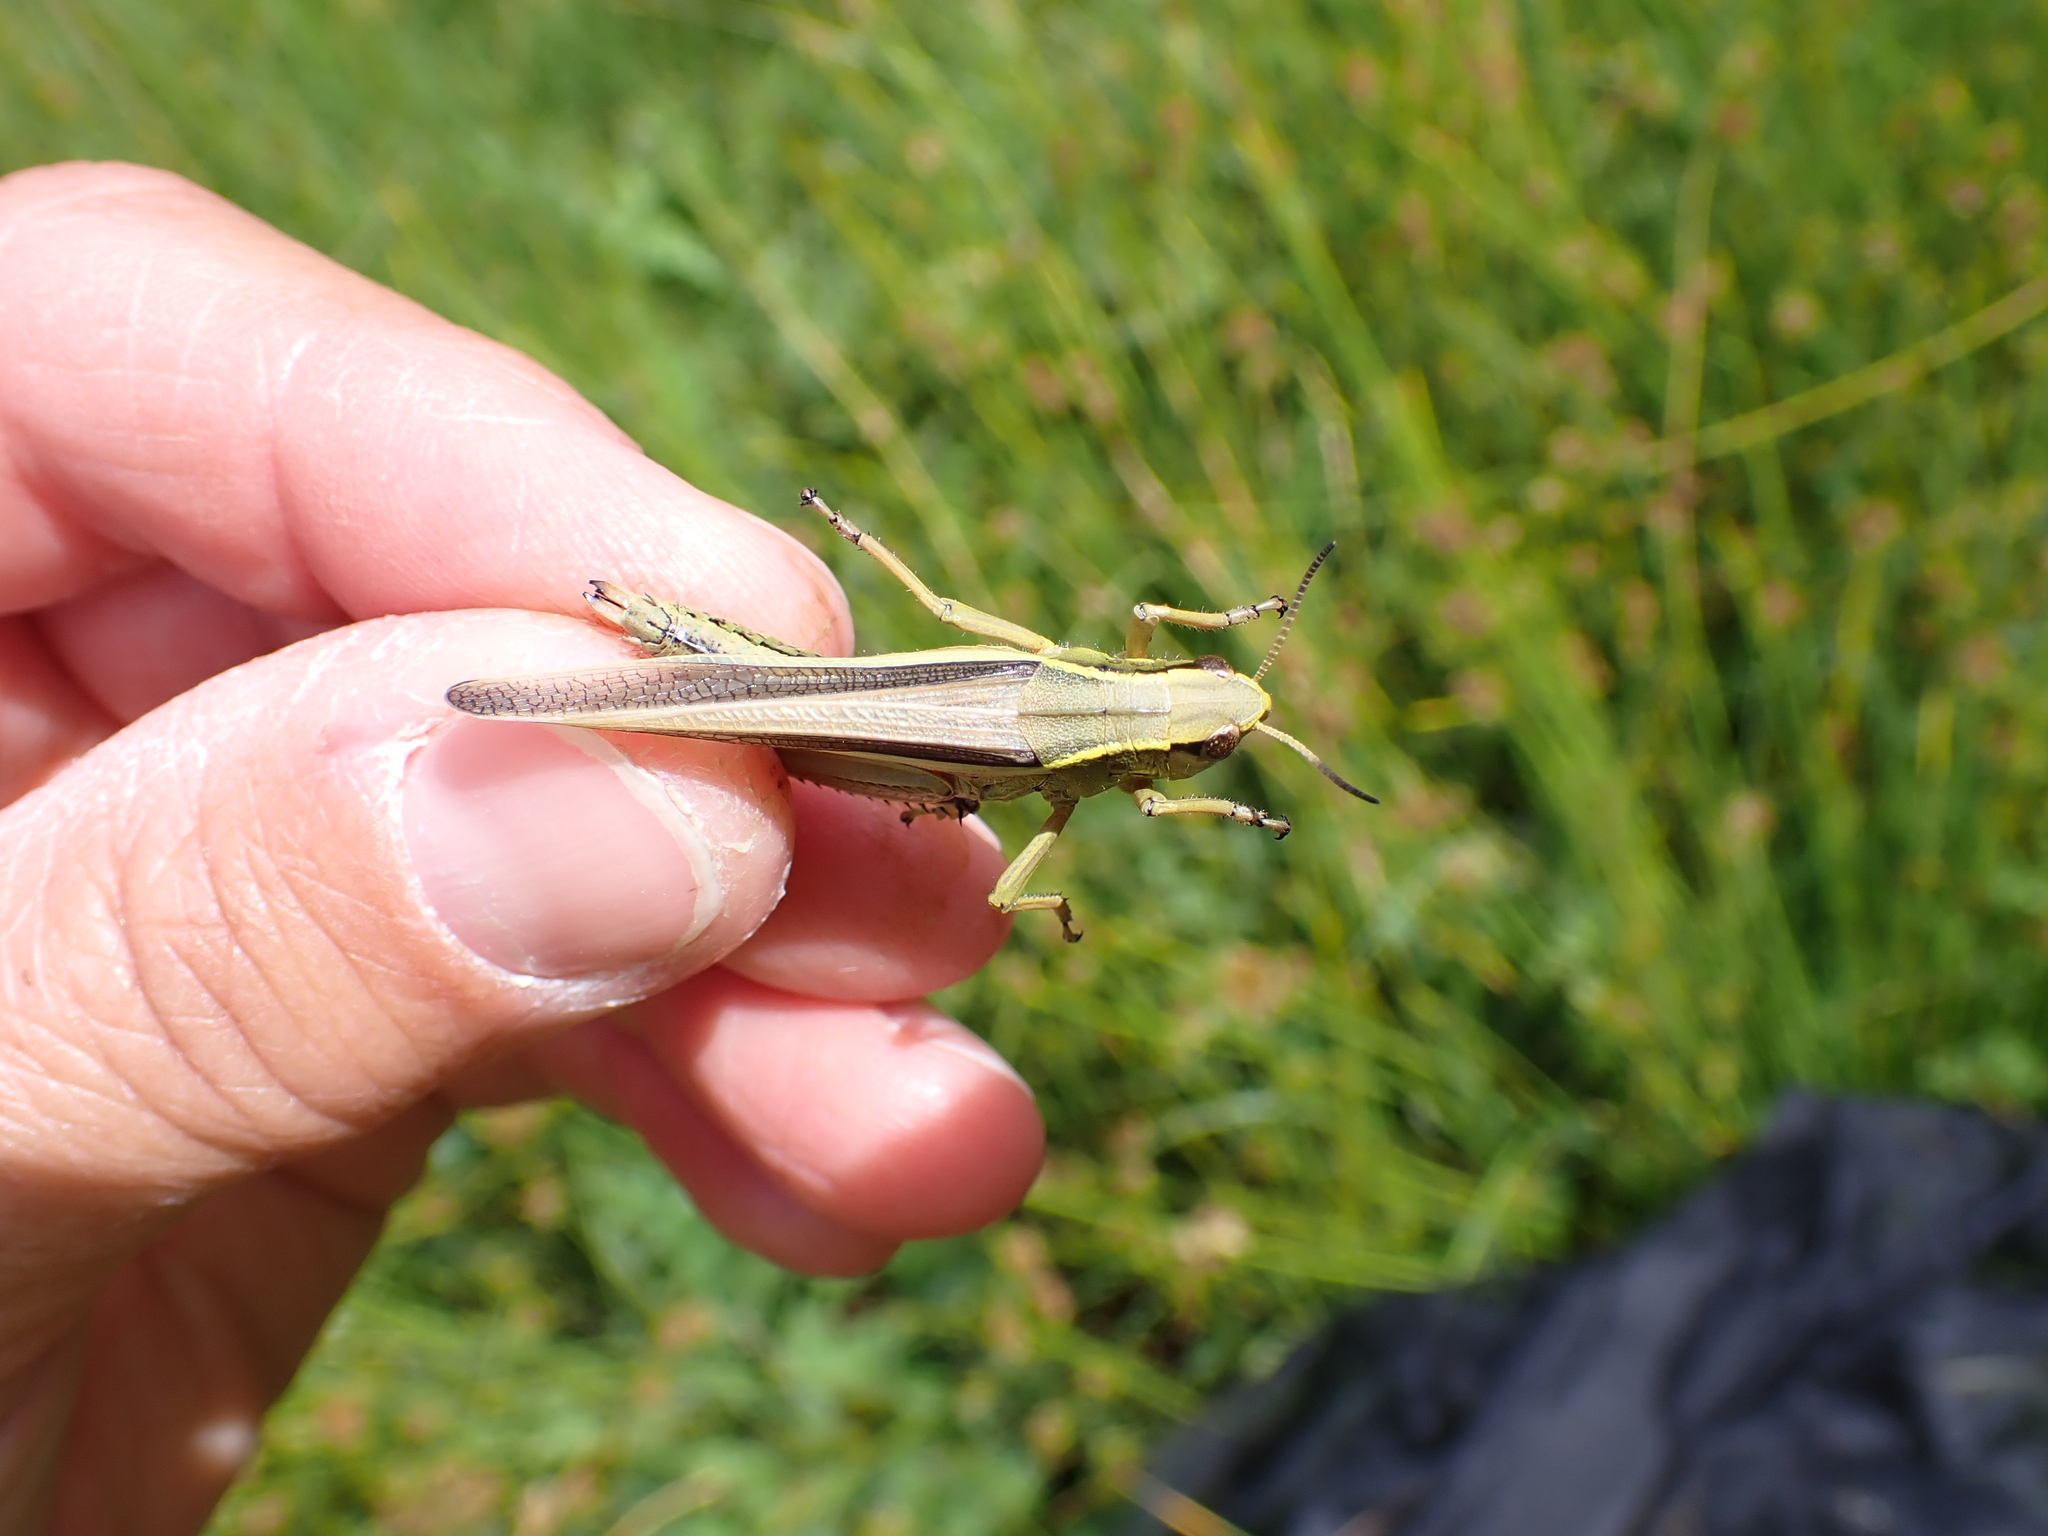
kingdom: Animalia
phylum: Arthropoda
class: Insecta
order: Orthoptera
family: Acrididae
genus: Stethophyma
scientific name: Stethophyma grossum
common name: Large marsh grasshopper
